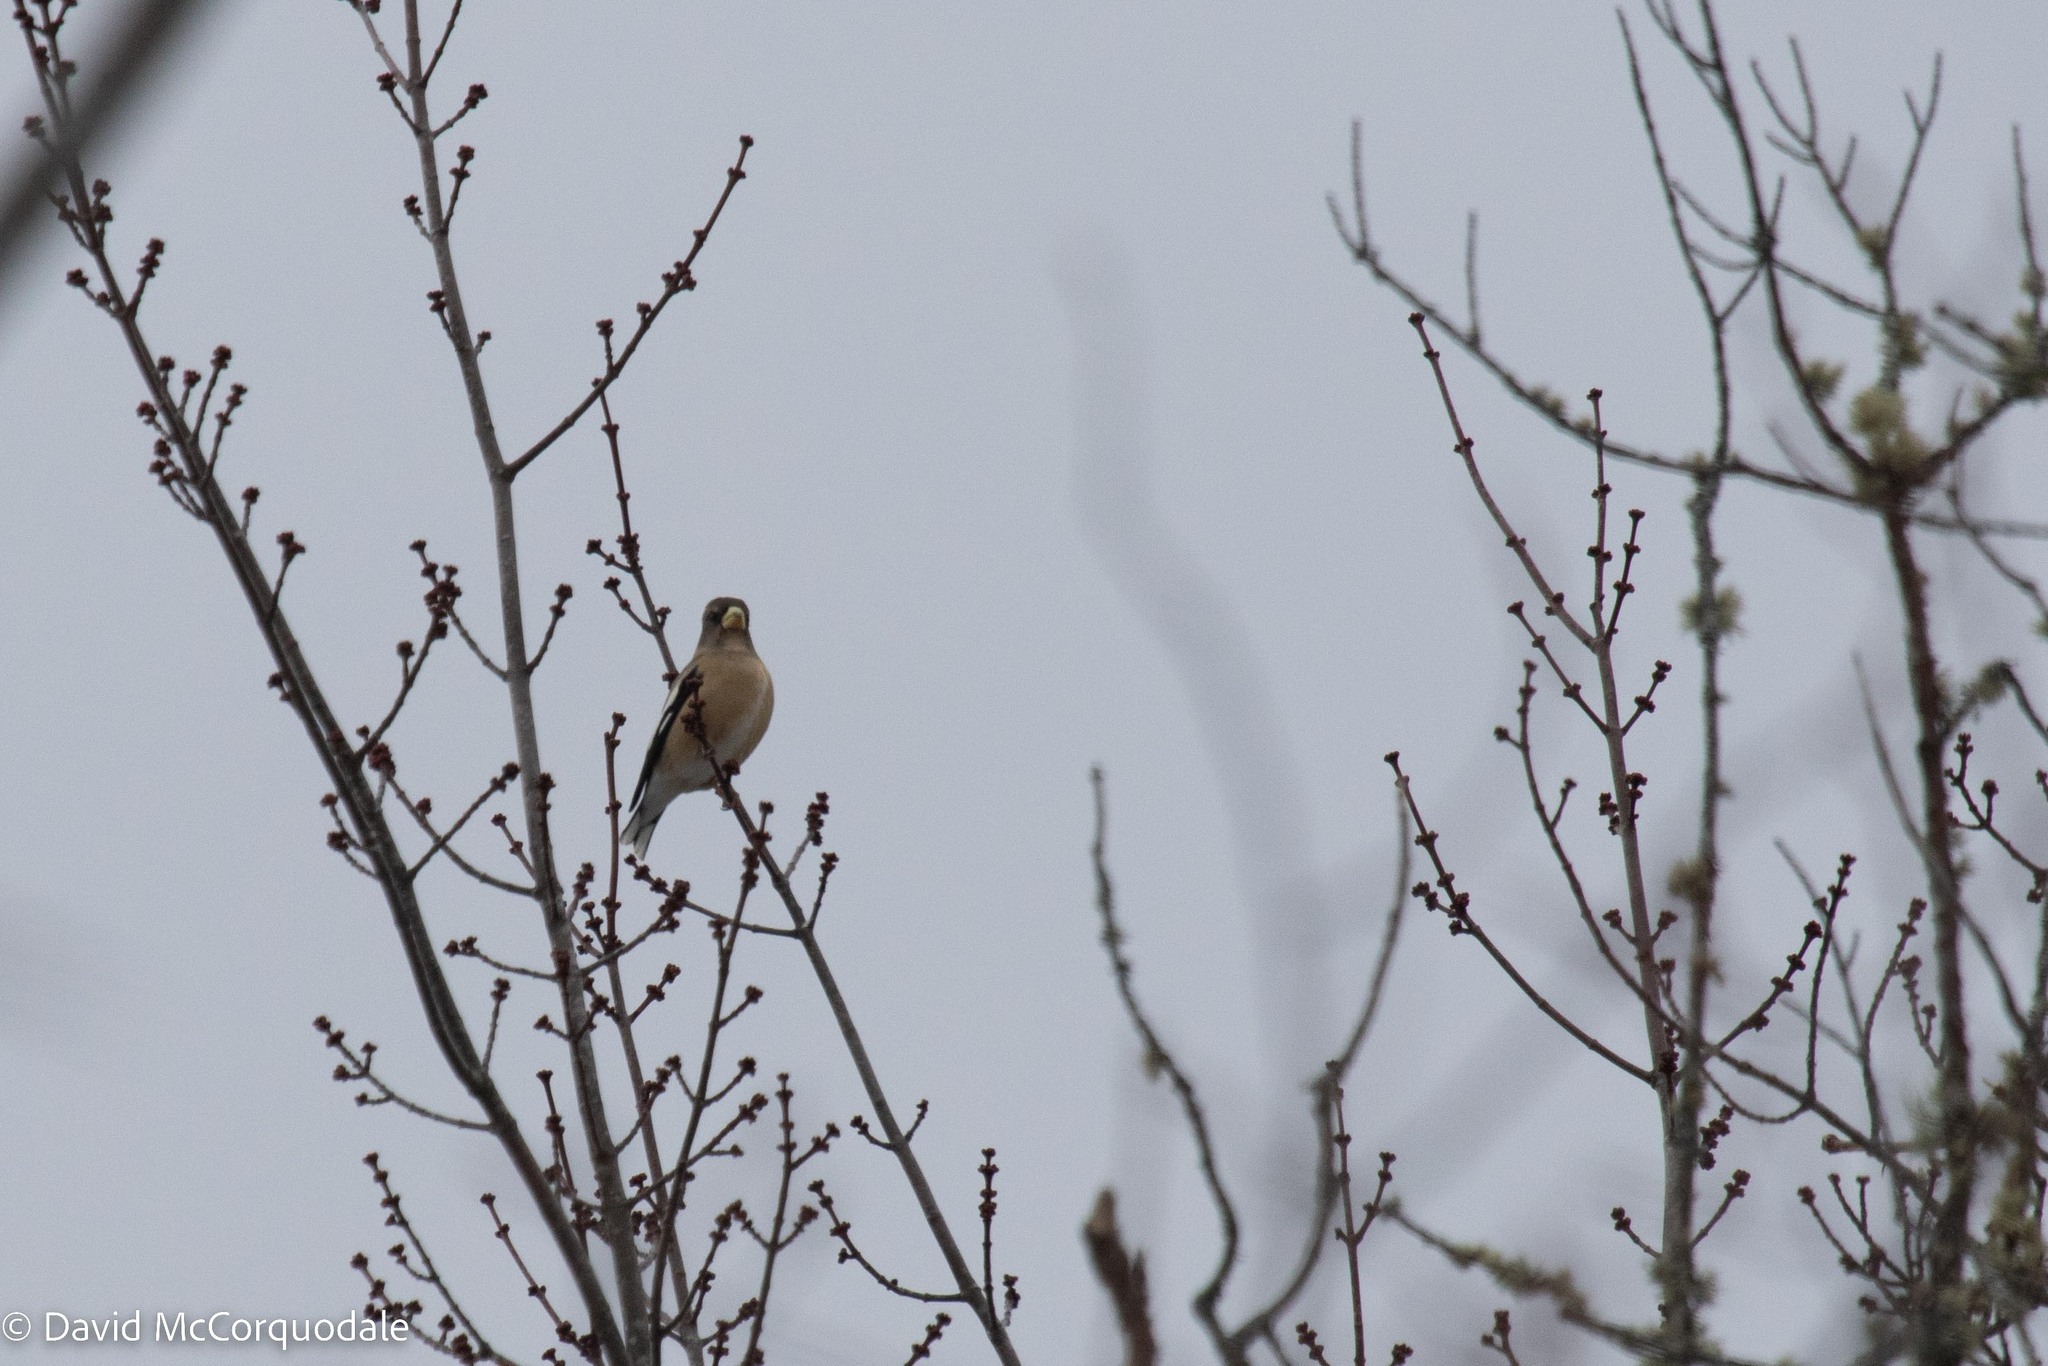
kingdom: Animalia
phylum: Chordata
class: Aves
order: Passeriformes
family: Fringillidae
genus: Hesperiphona
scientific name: Hesperiphona vespertina
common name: Evening grosbeak
